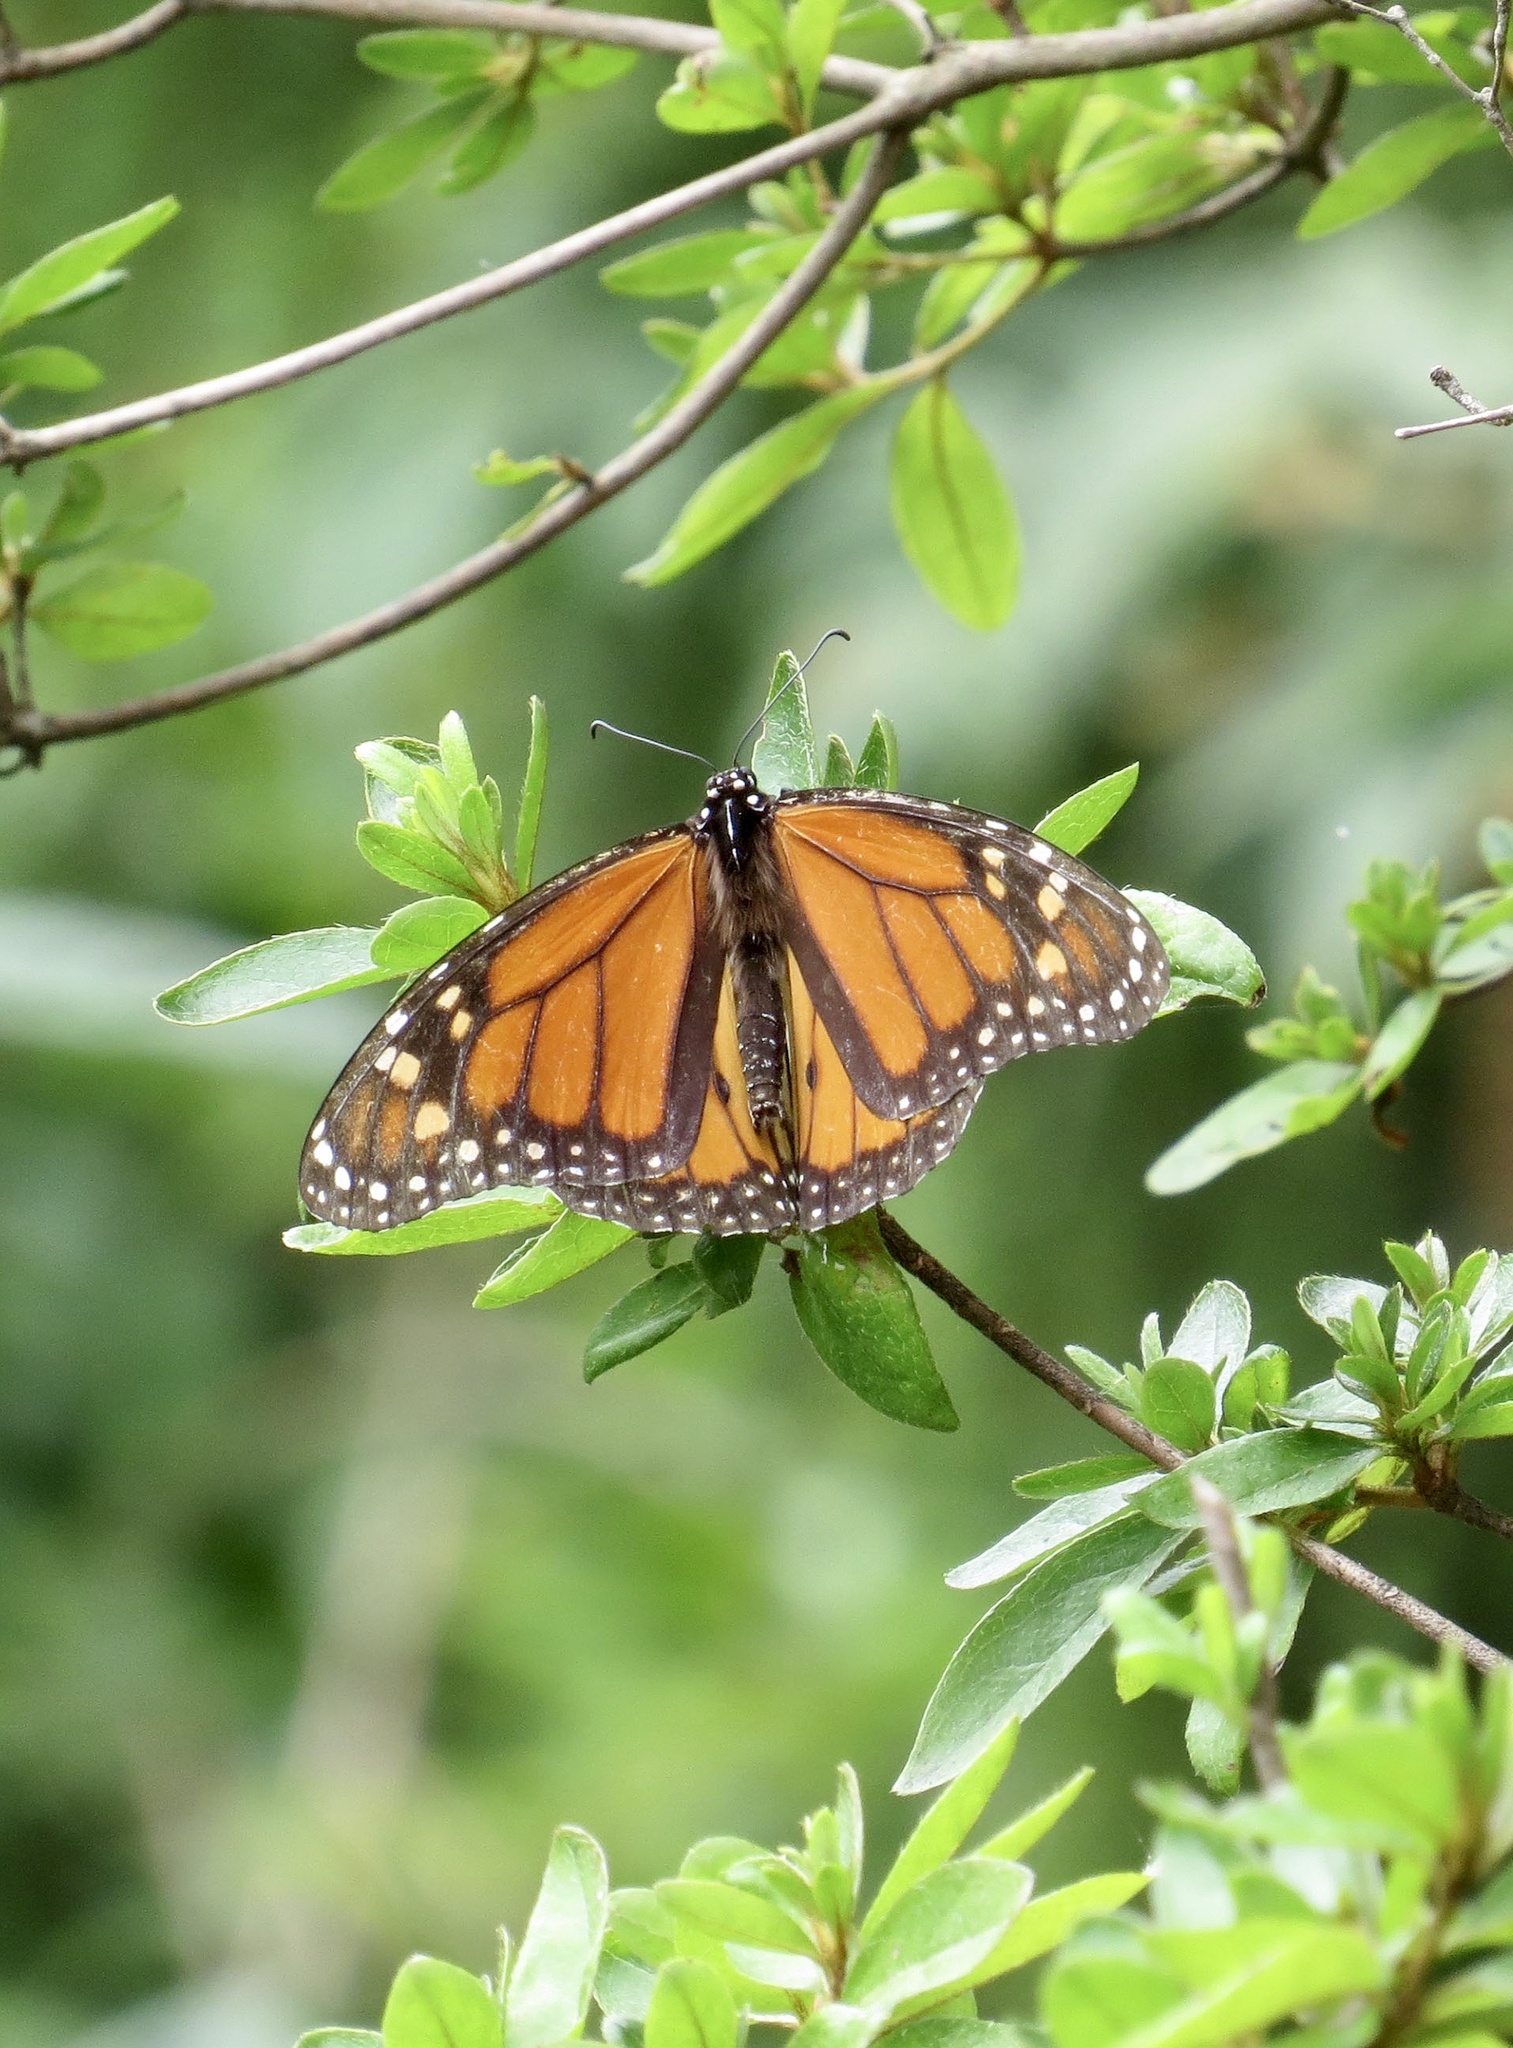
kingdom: Animalia
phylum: Arthropoda
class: Insecta
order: Lepidoptera
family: Nymphalidae
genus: Danaus
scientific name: Danaus plexippus
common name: Monarch
